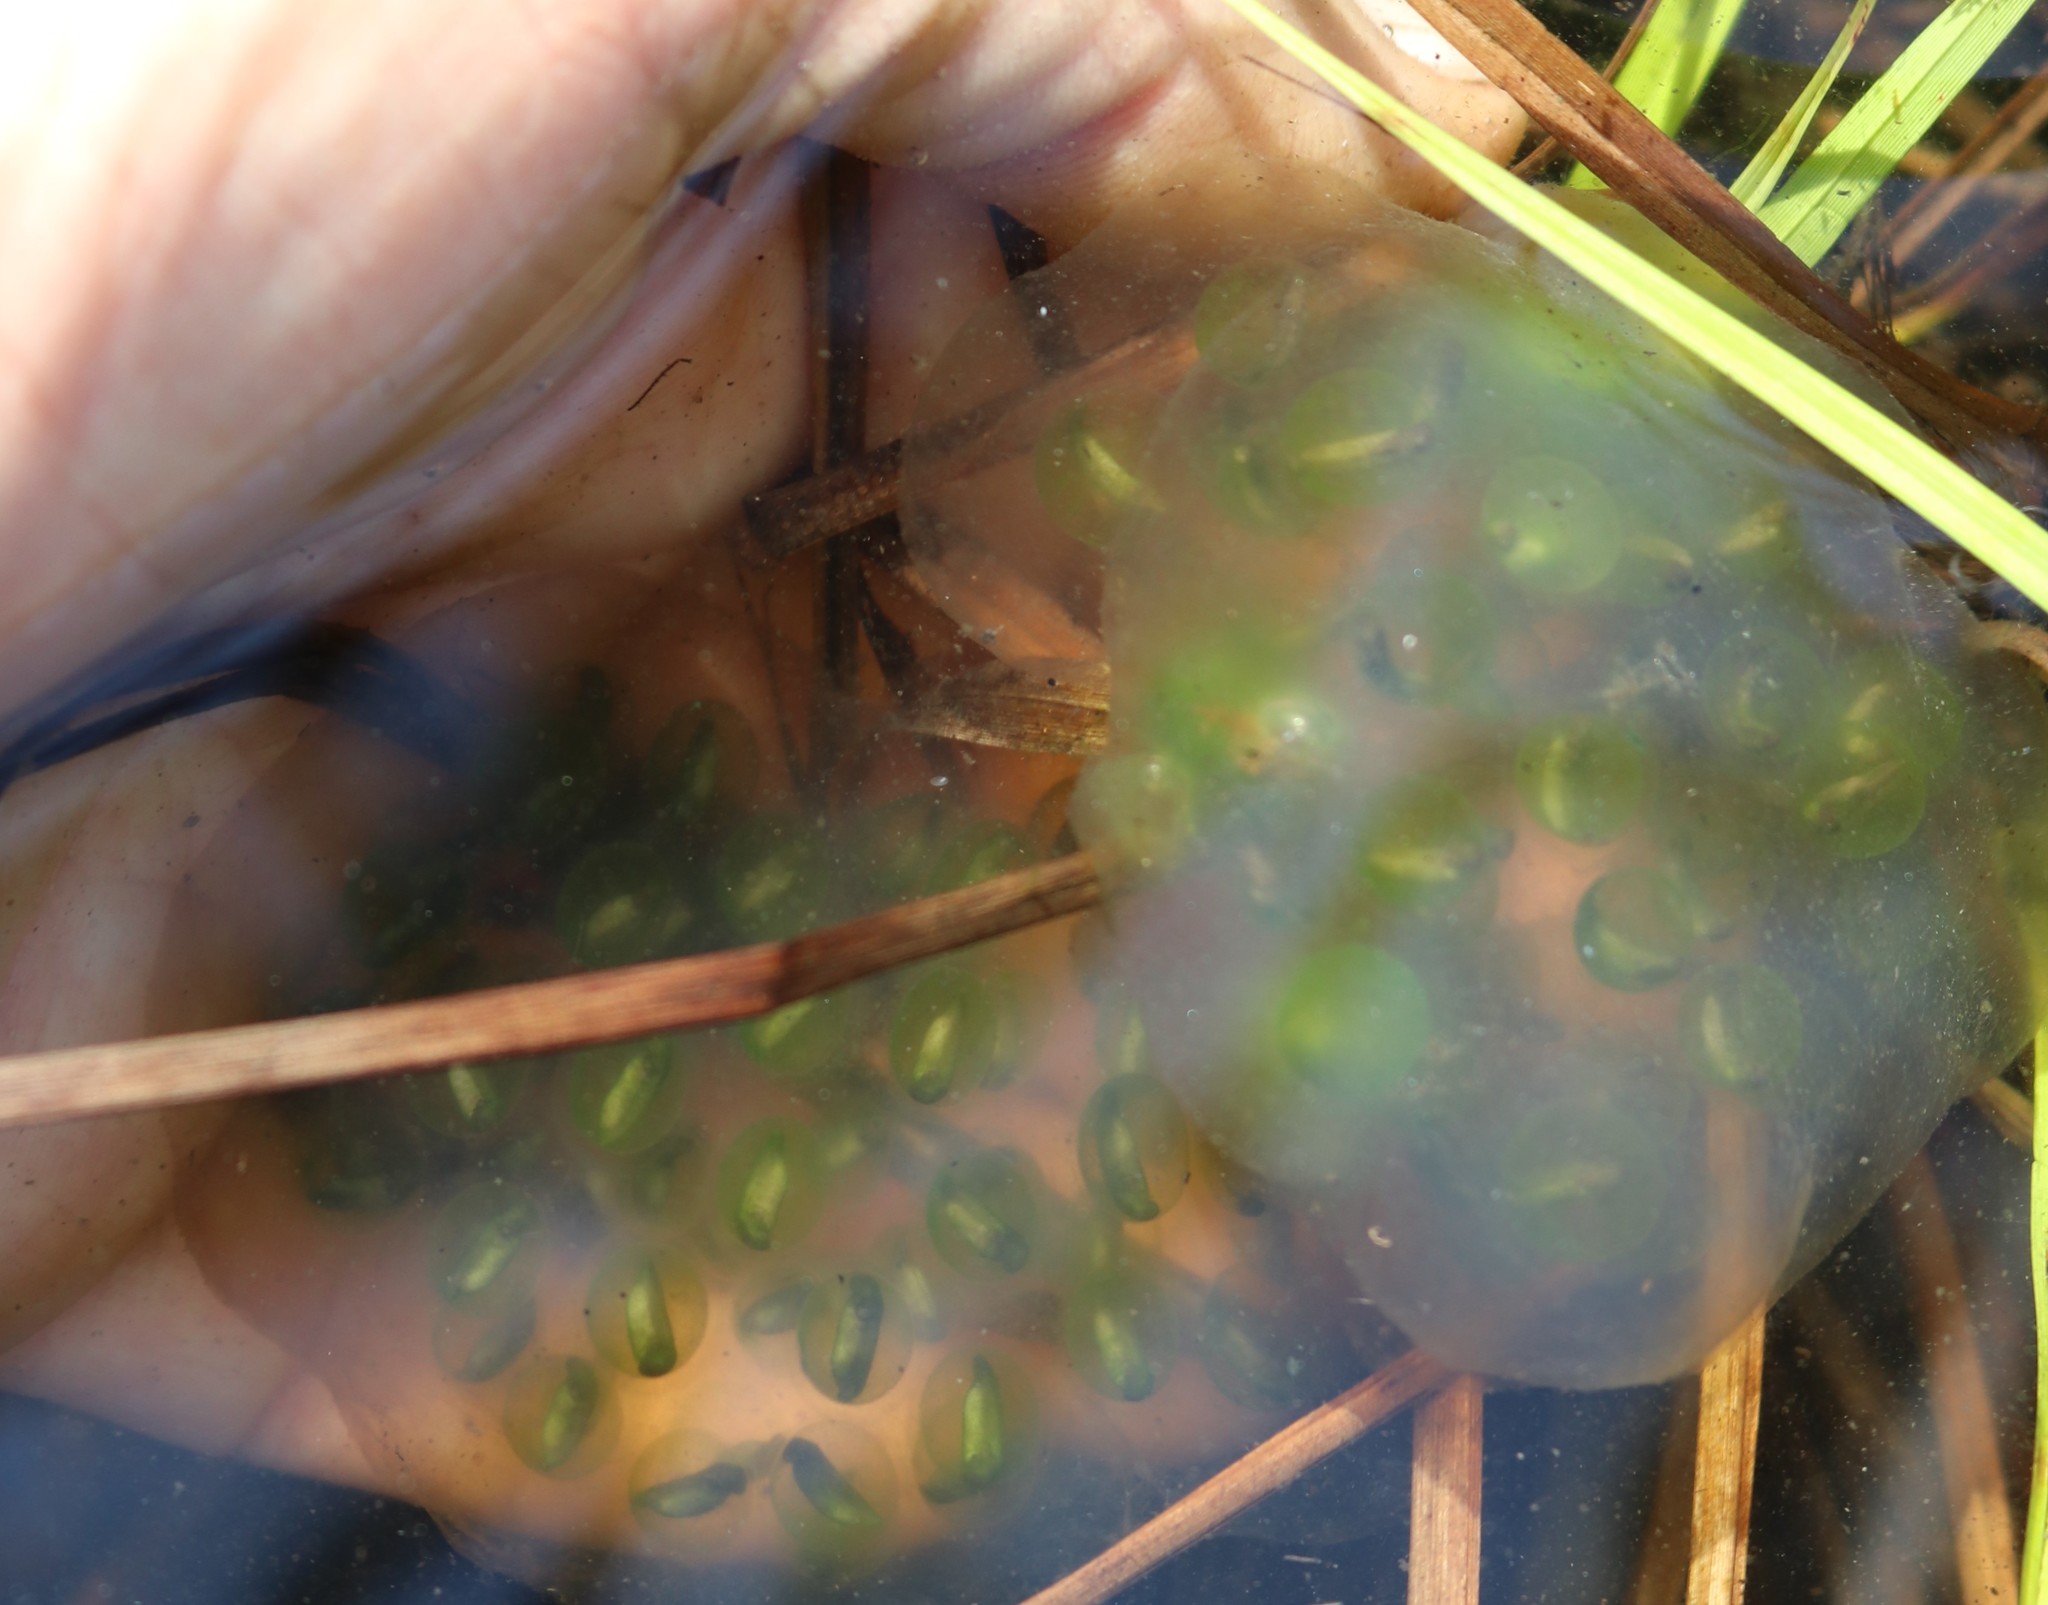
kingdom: Animalia
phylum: Chordata
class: Amphibia
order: Caudata
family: Ambystomatidae
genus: Ambystoma
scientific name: Ambystoma maculatum
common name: Spotted salamander
